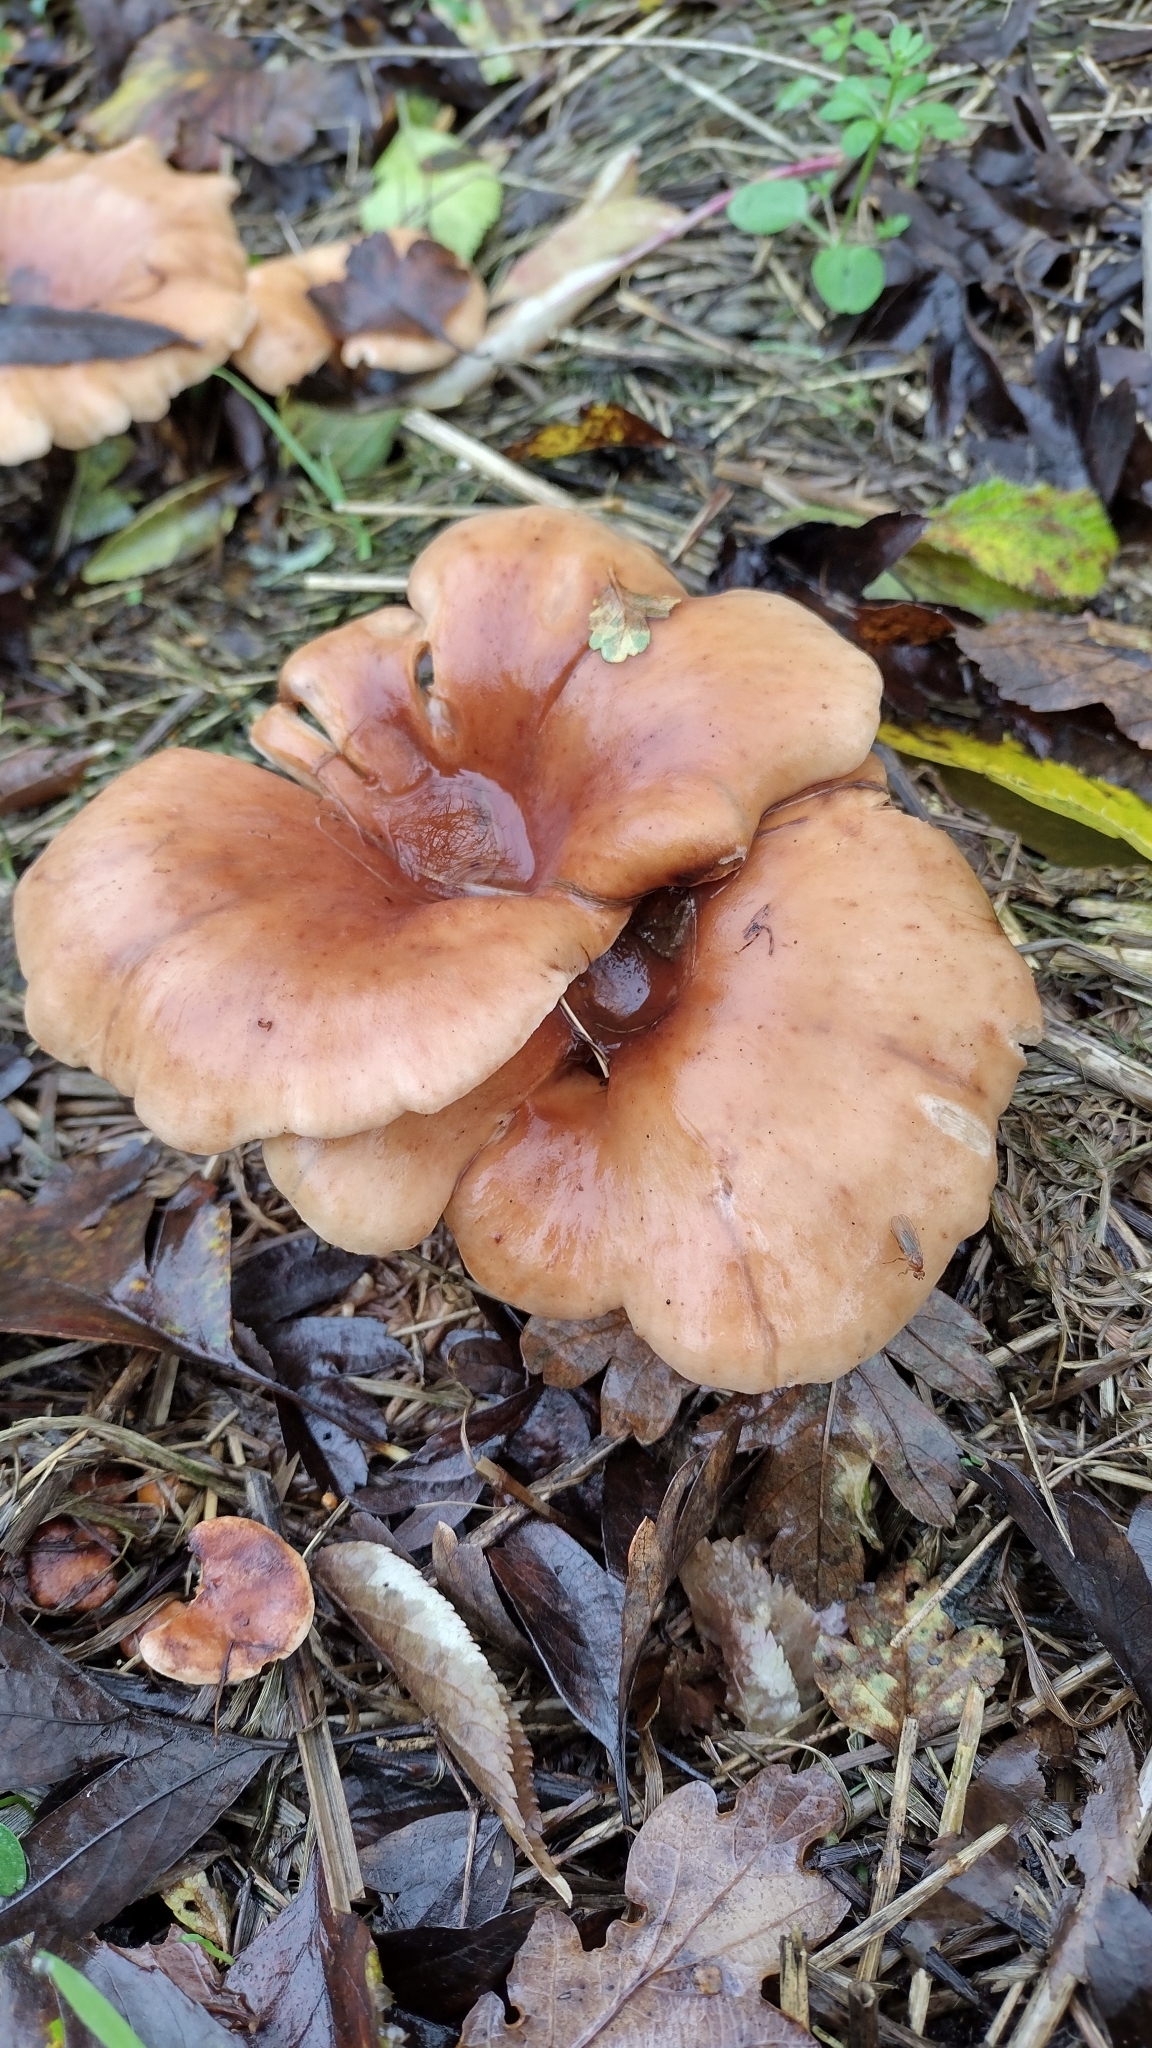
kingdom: Fungi
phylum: Basidiomycota
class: Agaricomycetes
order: Agaricales
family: Tricholomataceae
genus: Paralepista
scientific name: Paralepista flaccida
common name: Tawny funnel cap
